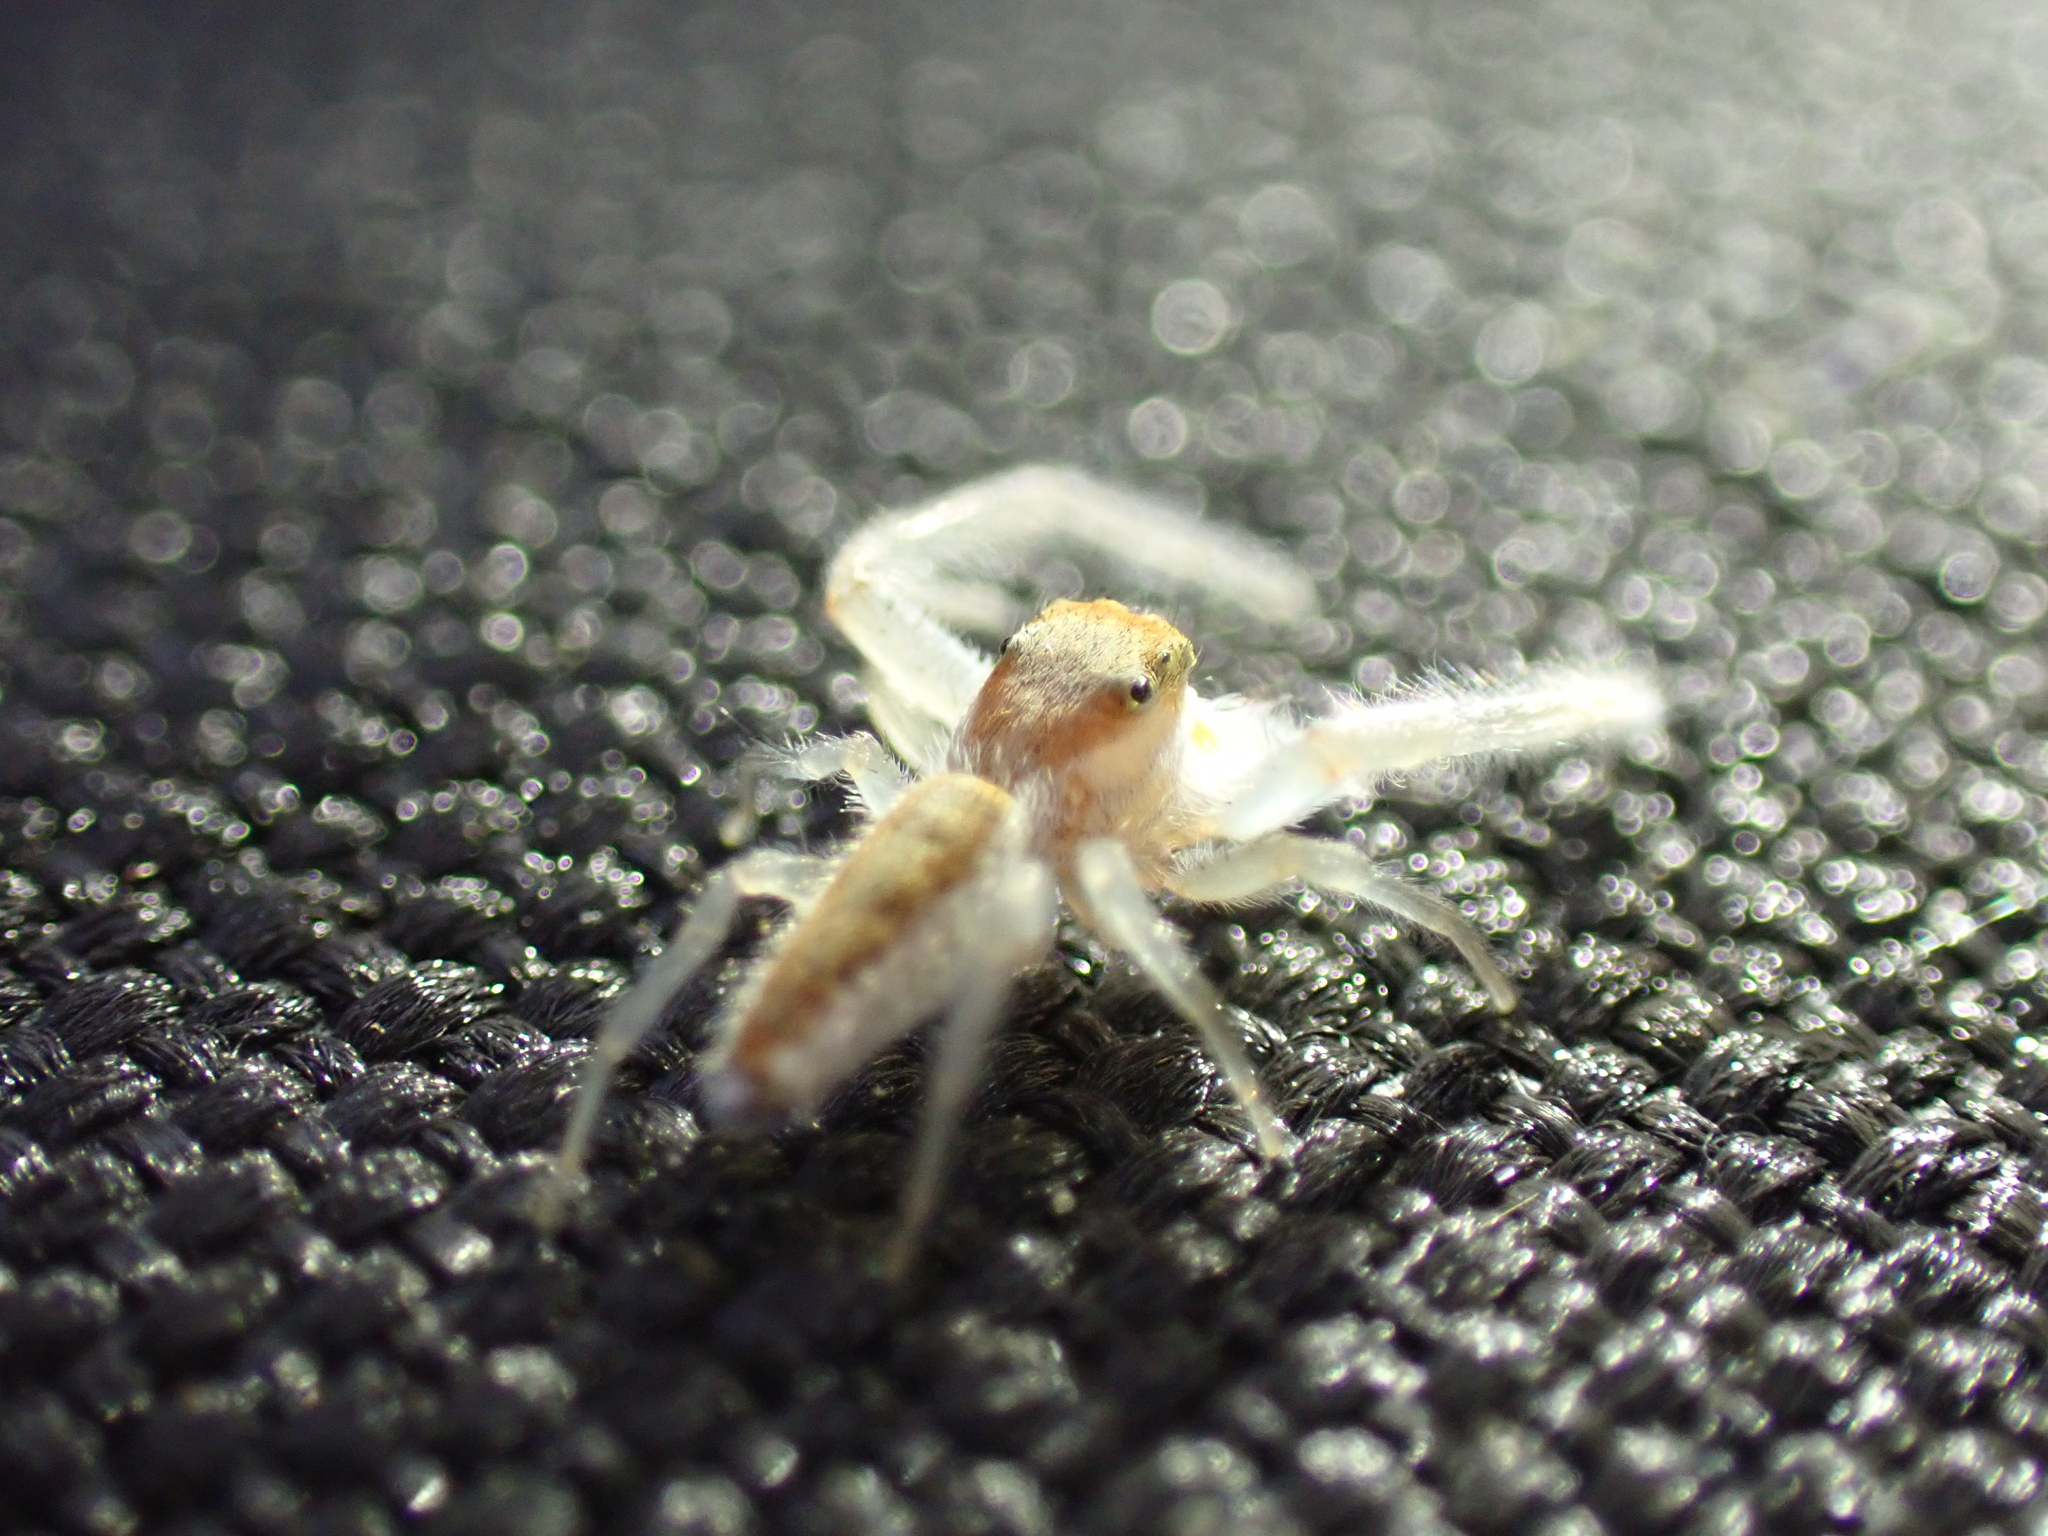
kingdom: Animalia
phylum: Arthropoda
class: Arachnida
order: Araneae
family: Salticidae
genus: Hentzia
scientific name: Hentzia mitrata
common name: White-jawed jumping spider
